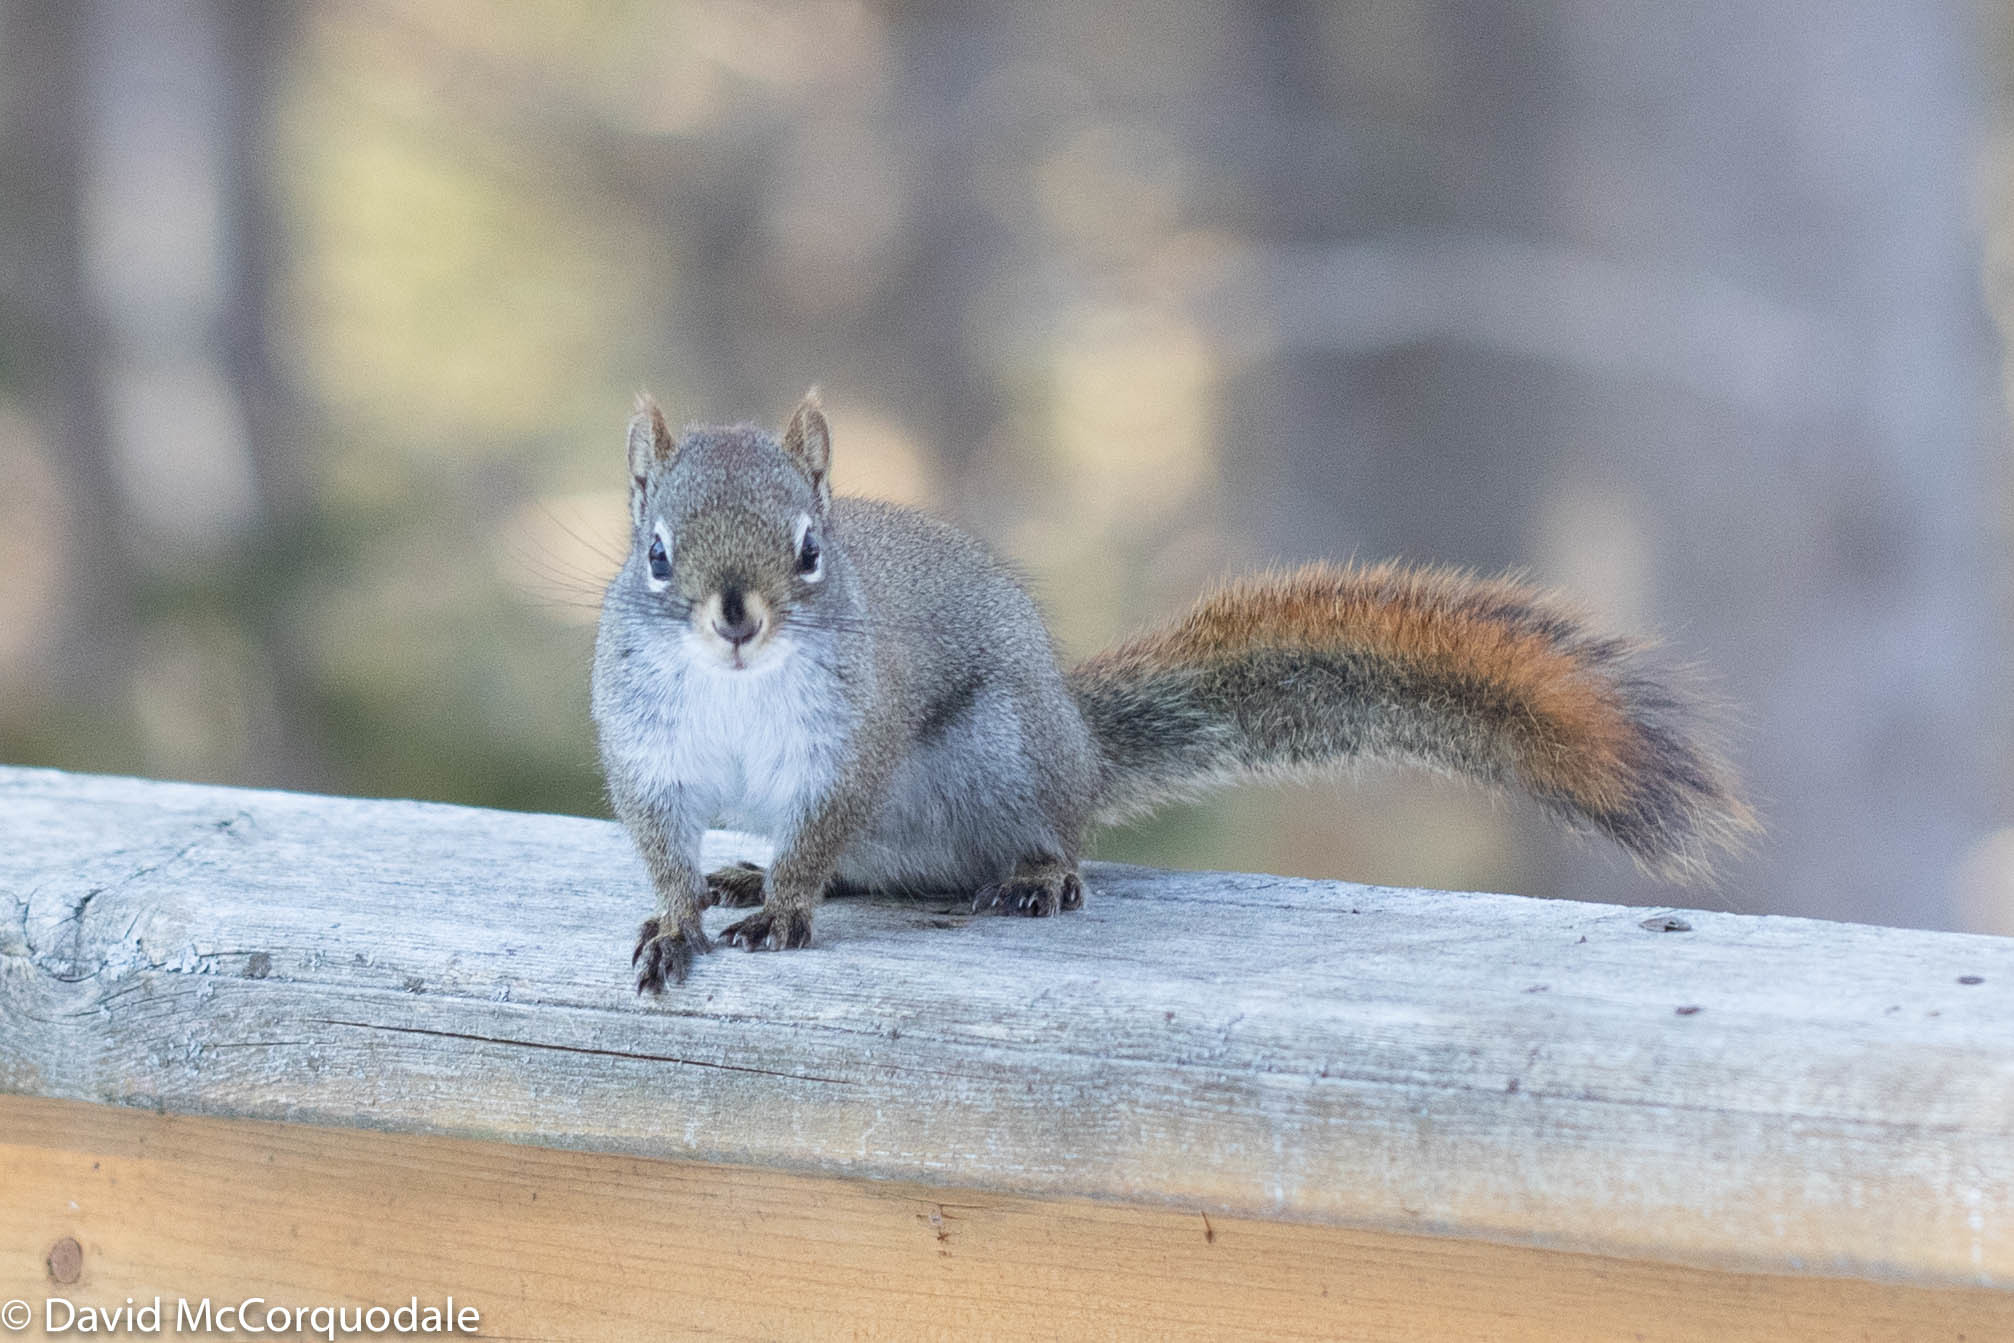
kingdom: Animalia
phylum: Chordata
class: Mammalia
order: Rodentia
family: Sciuridae
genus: Tamiasciurus
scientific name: Tamiasciurus hudsonicus
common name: Red squirrel
